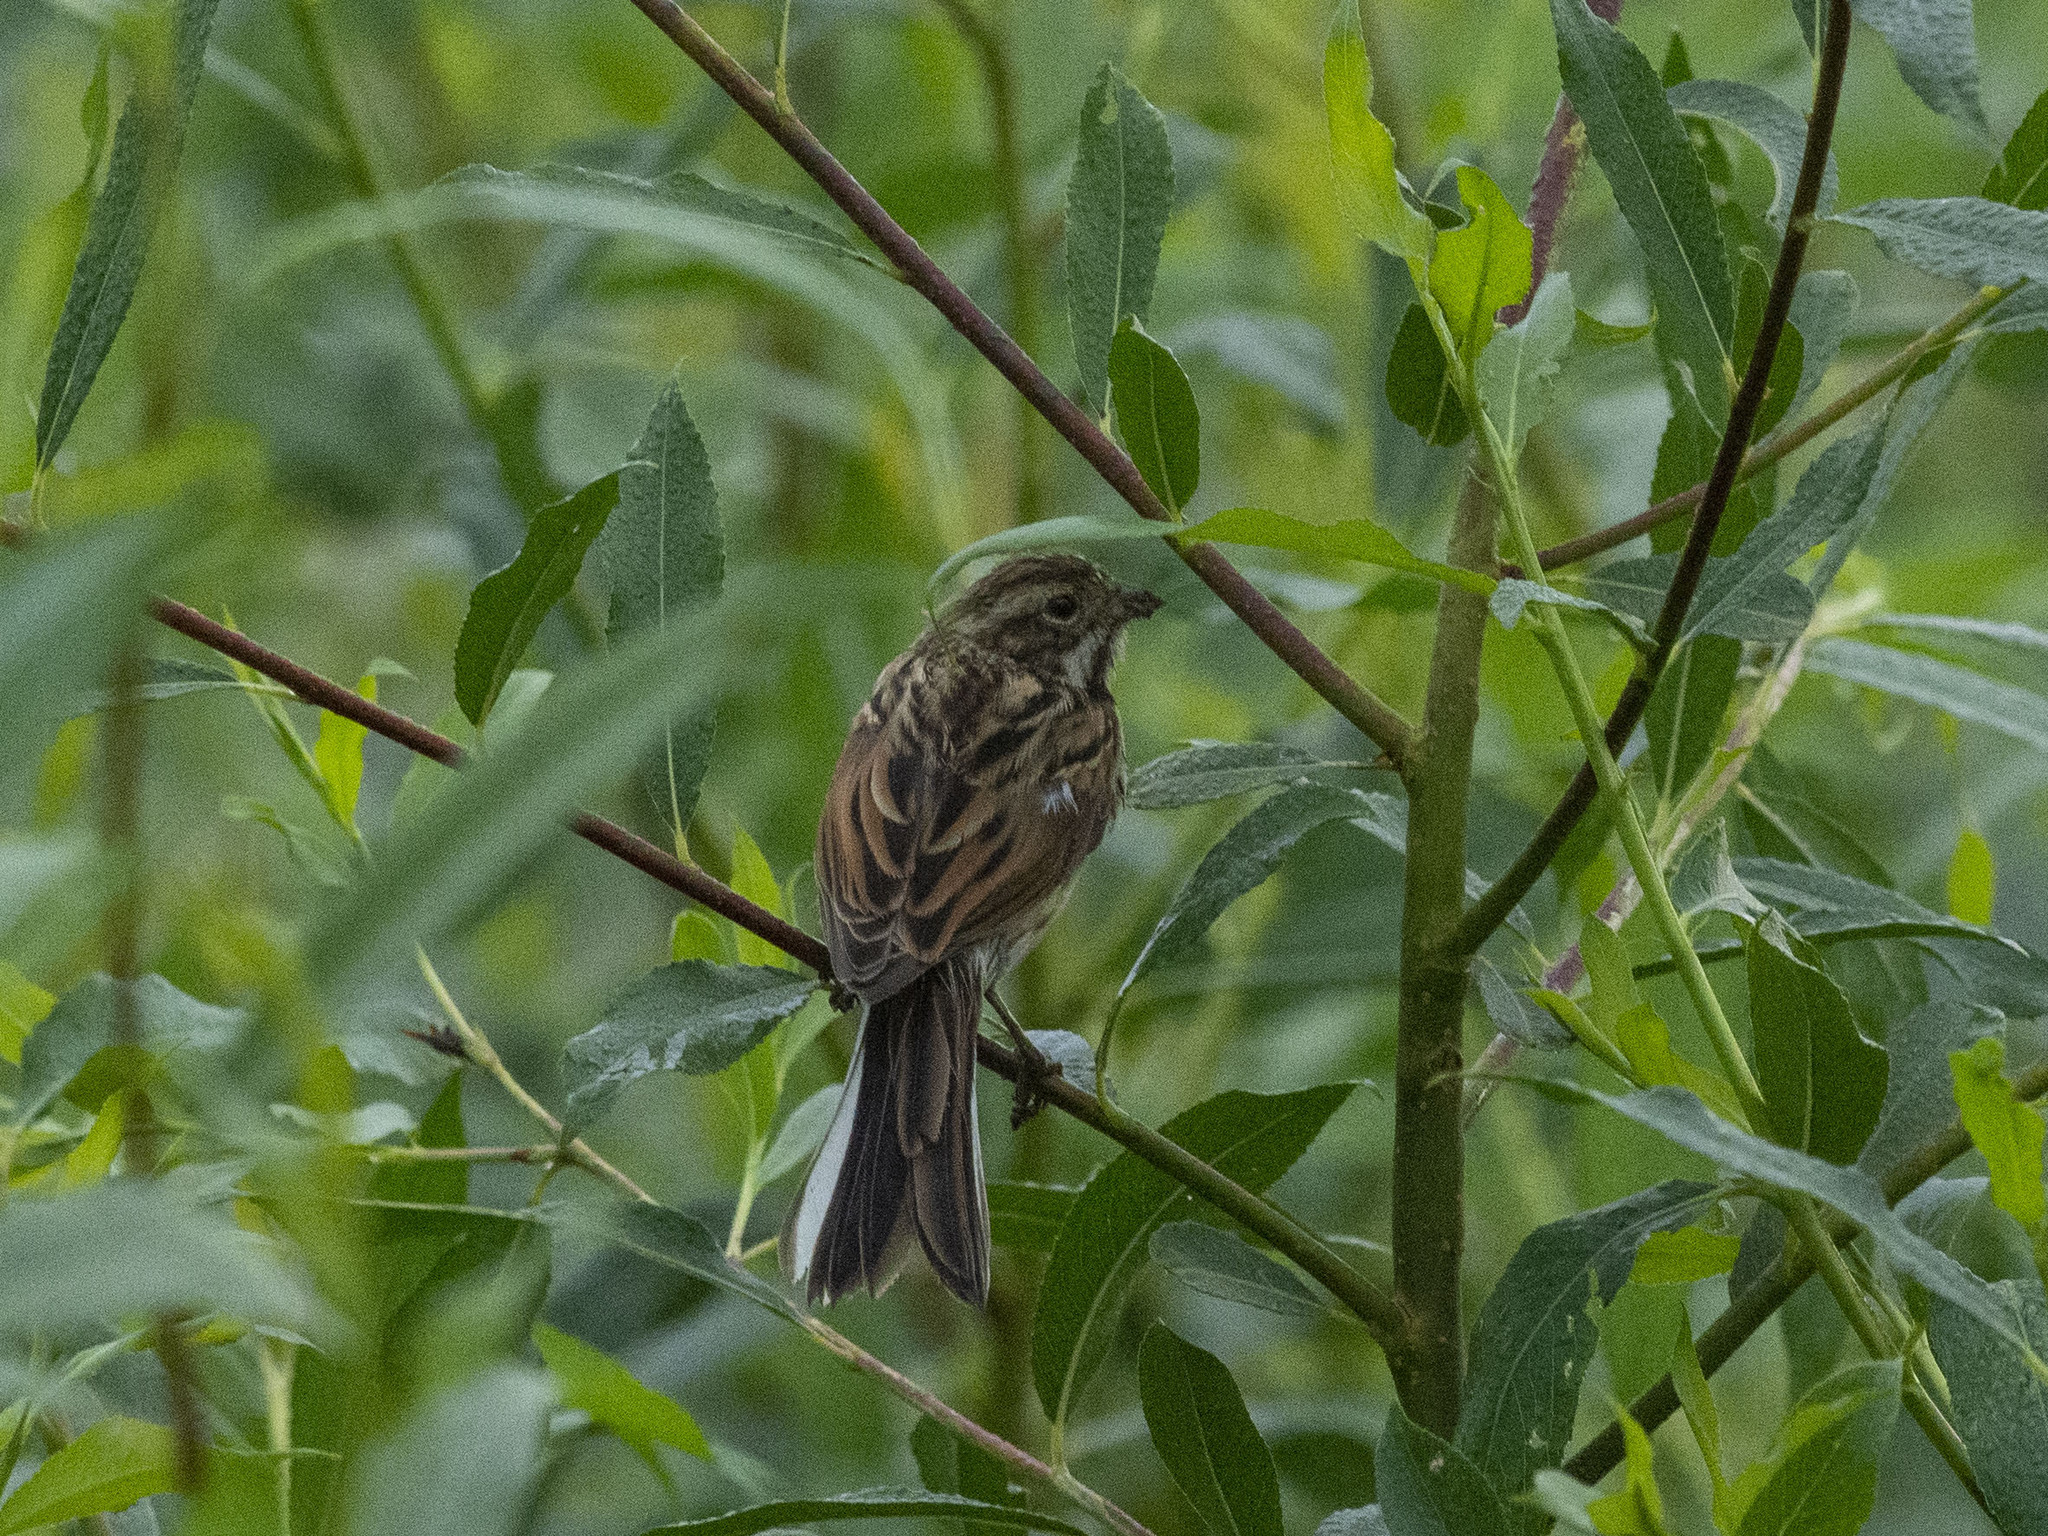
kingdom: Animalia
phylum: Chordata
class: Aves
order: Passeriformes
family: Emberizidae
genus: Emberiza
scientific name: Emberiza schoeniclus
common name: Reed bunting
